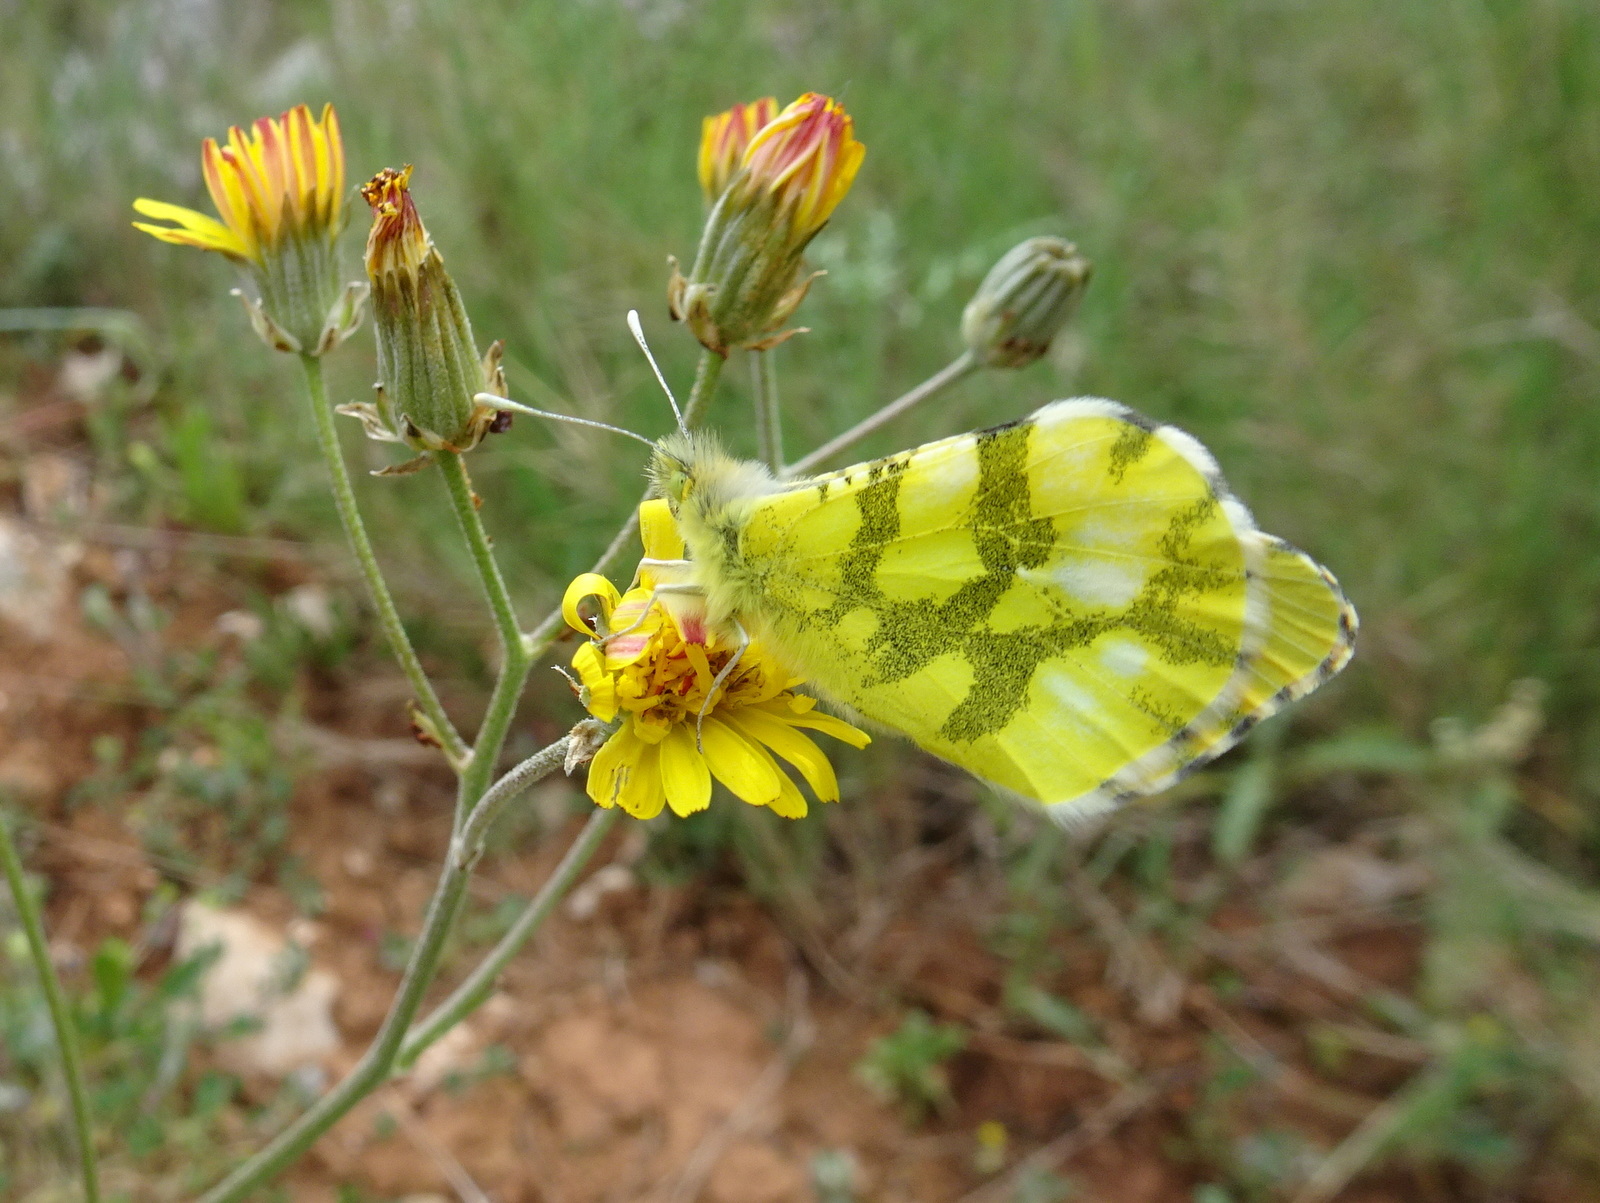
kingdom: Animalia
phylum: Arthropoda
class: Insecta
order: Lepidoptera
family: Pieridae
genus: Anthocharis
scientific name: Anthocharis euphenoides
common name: Provence orange-tip
